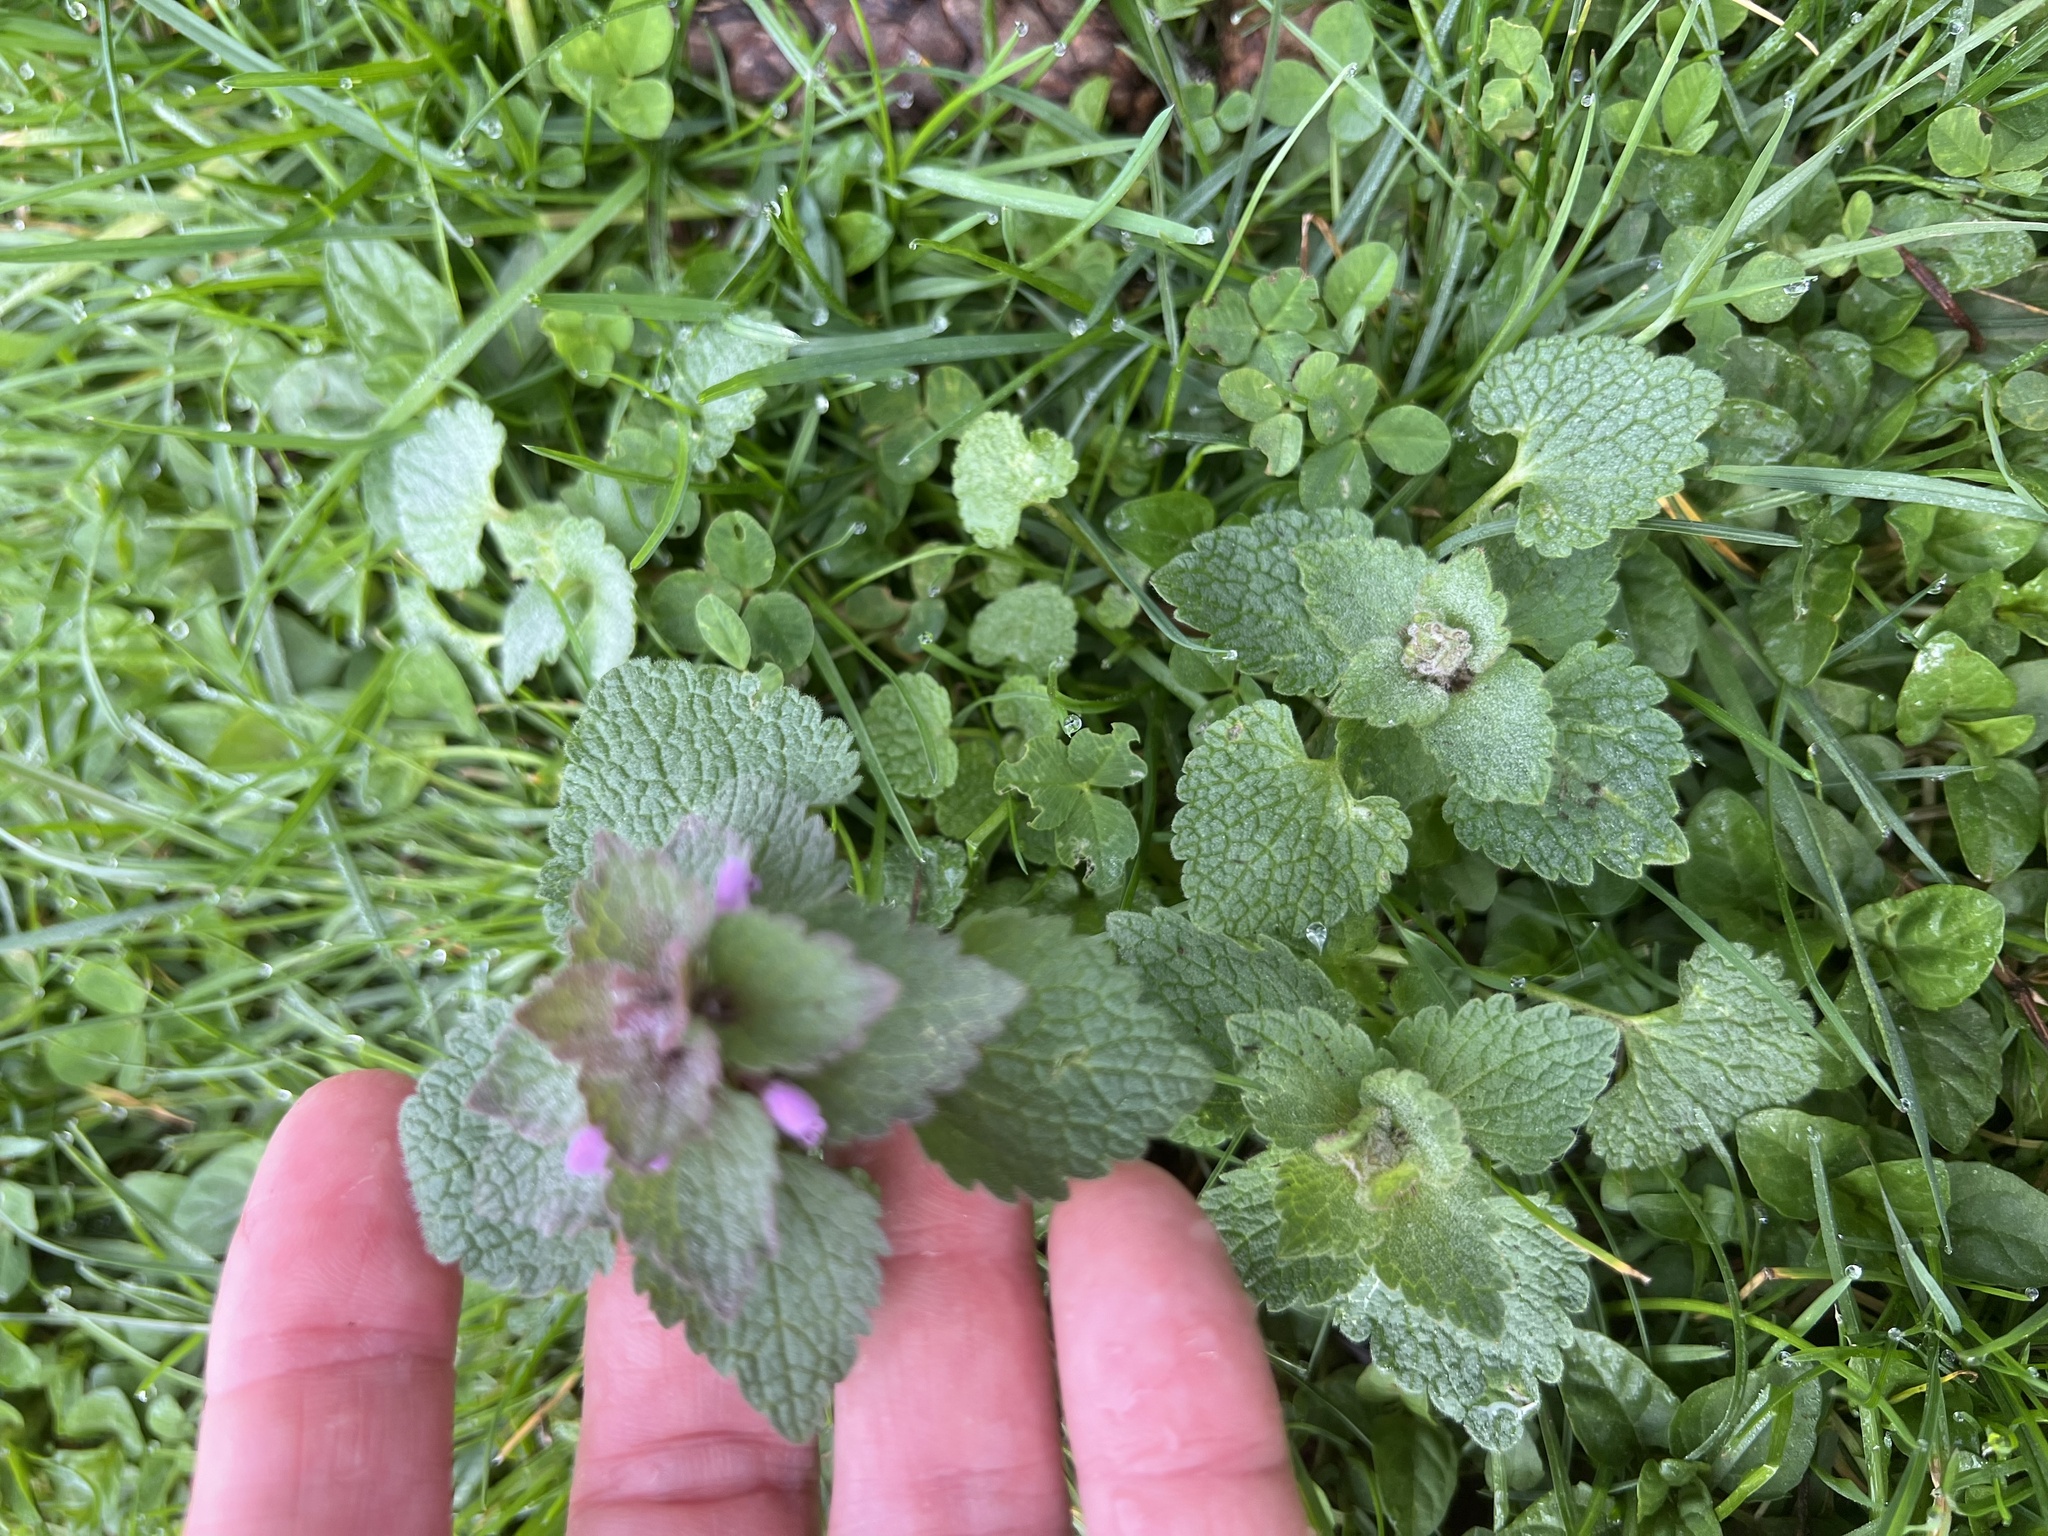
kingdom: Plantae
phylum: Tracheophyta
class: Magnoliopsida
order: Lamiales
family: Lamiaceae
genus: Lamium
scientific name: Lamium purpureum
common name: Red dead-nettle
